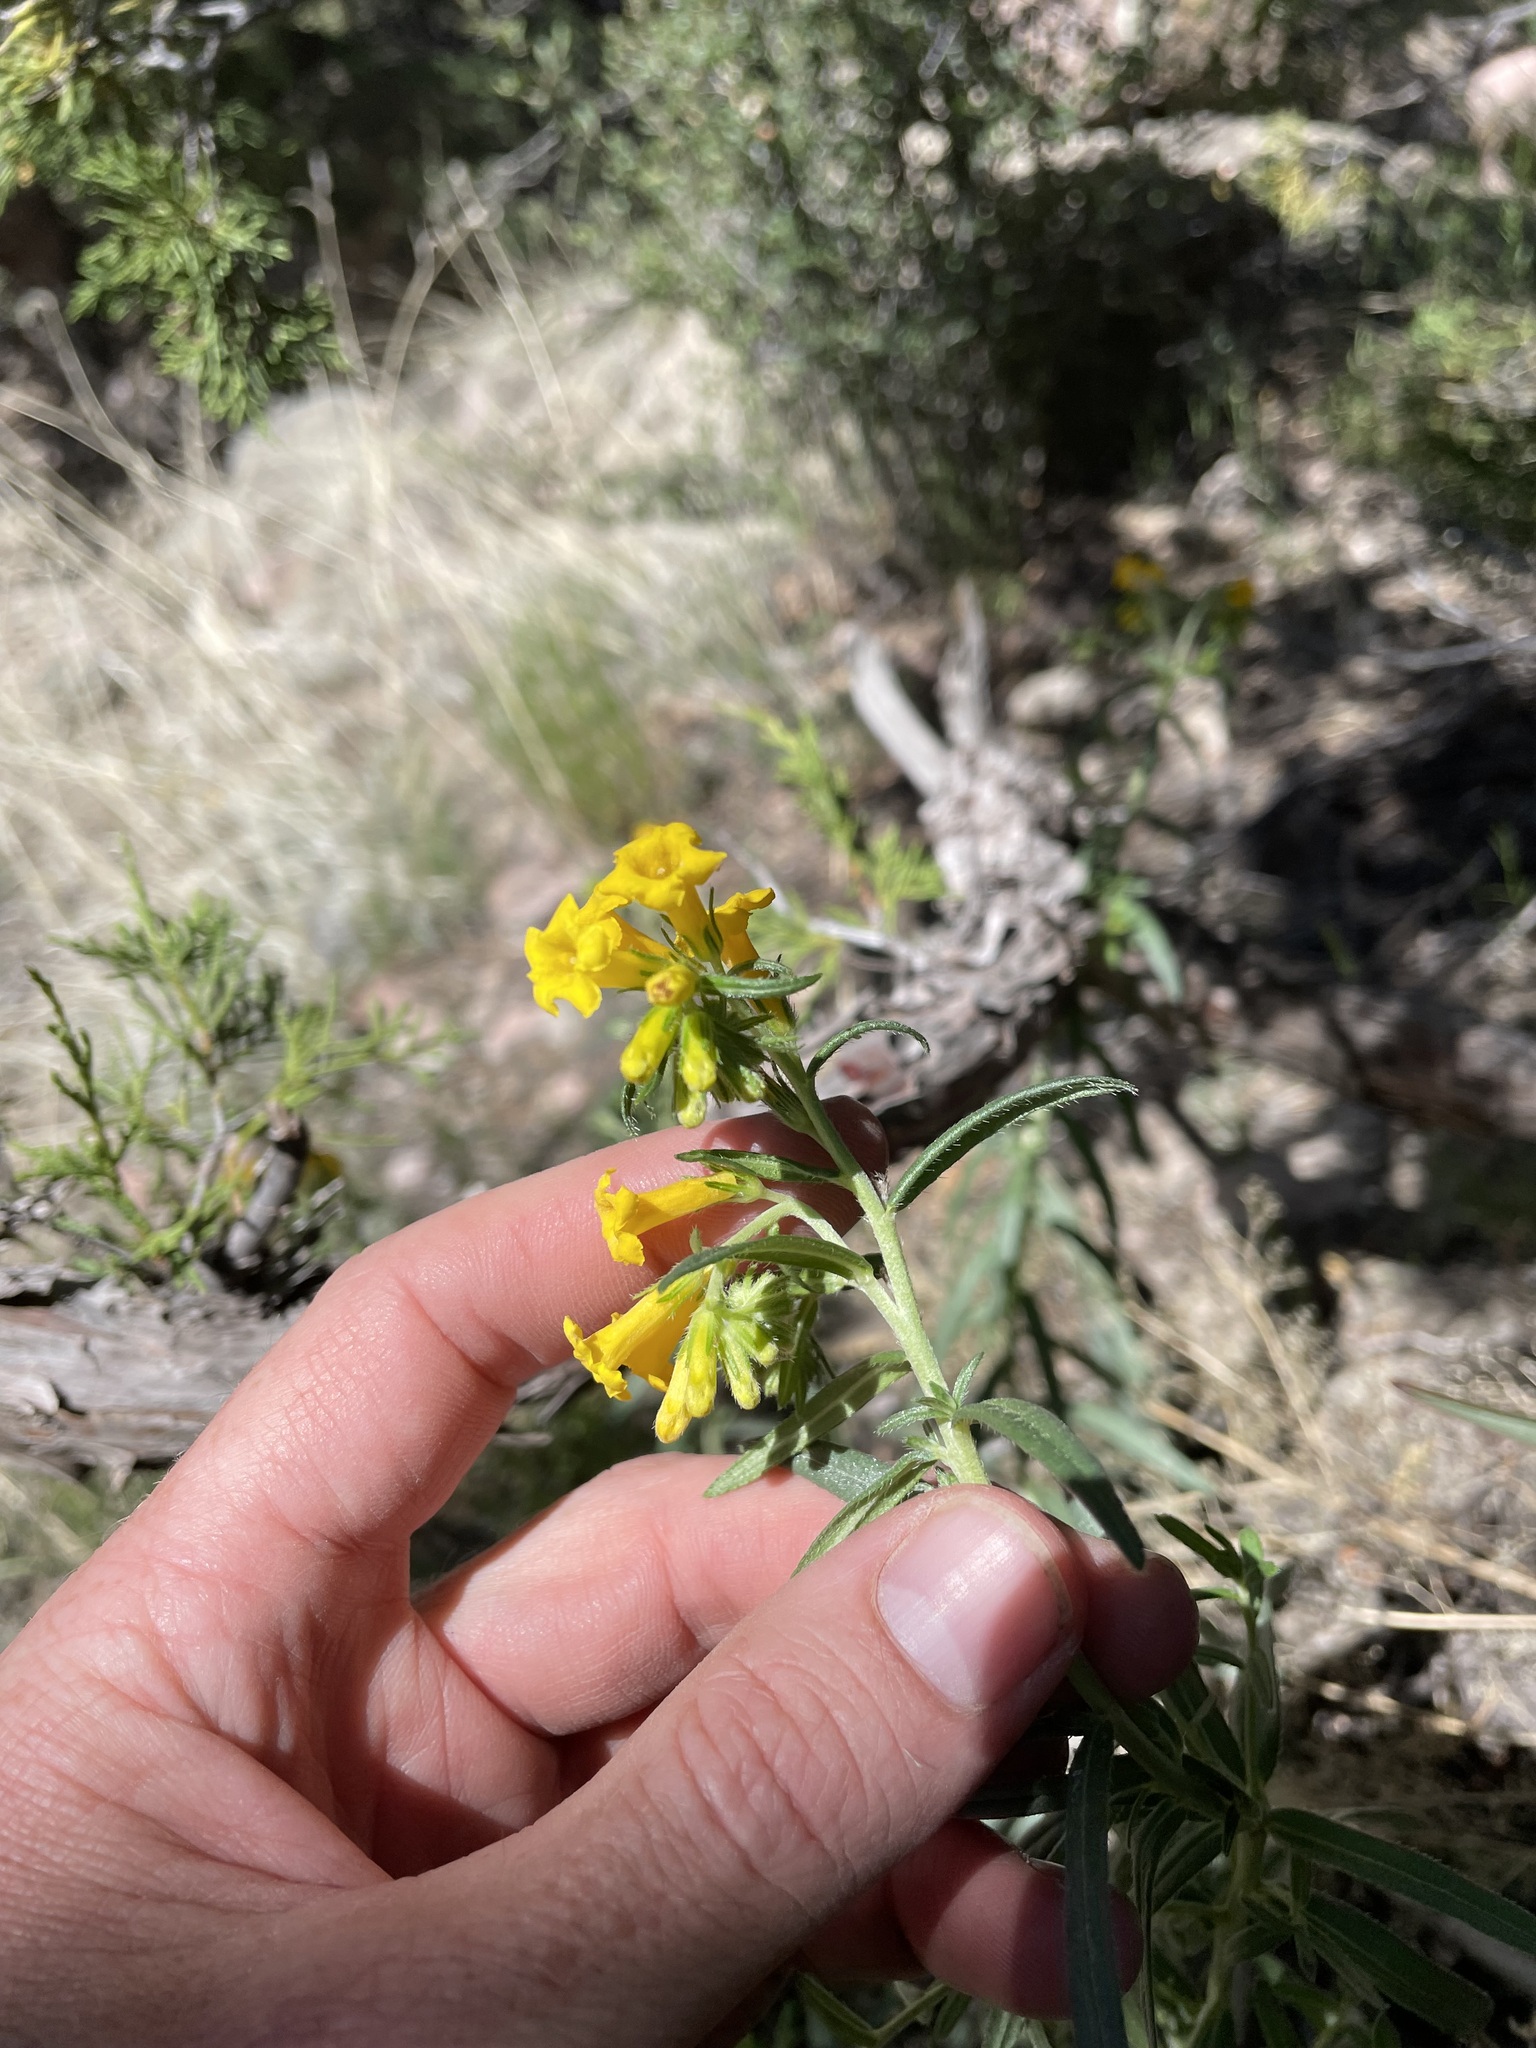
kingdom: Plantae
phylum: Tracheophyta
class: Magnoliopsida
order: Boraginales
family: Boraginaceae
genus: Lithospermum
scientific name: Lithospermum multiflorum
